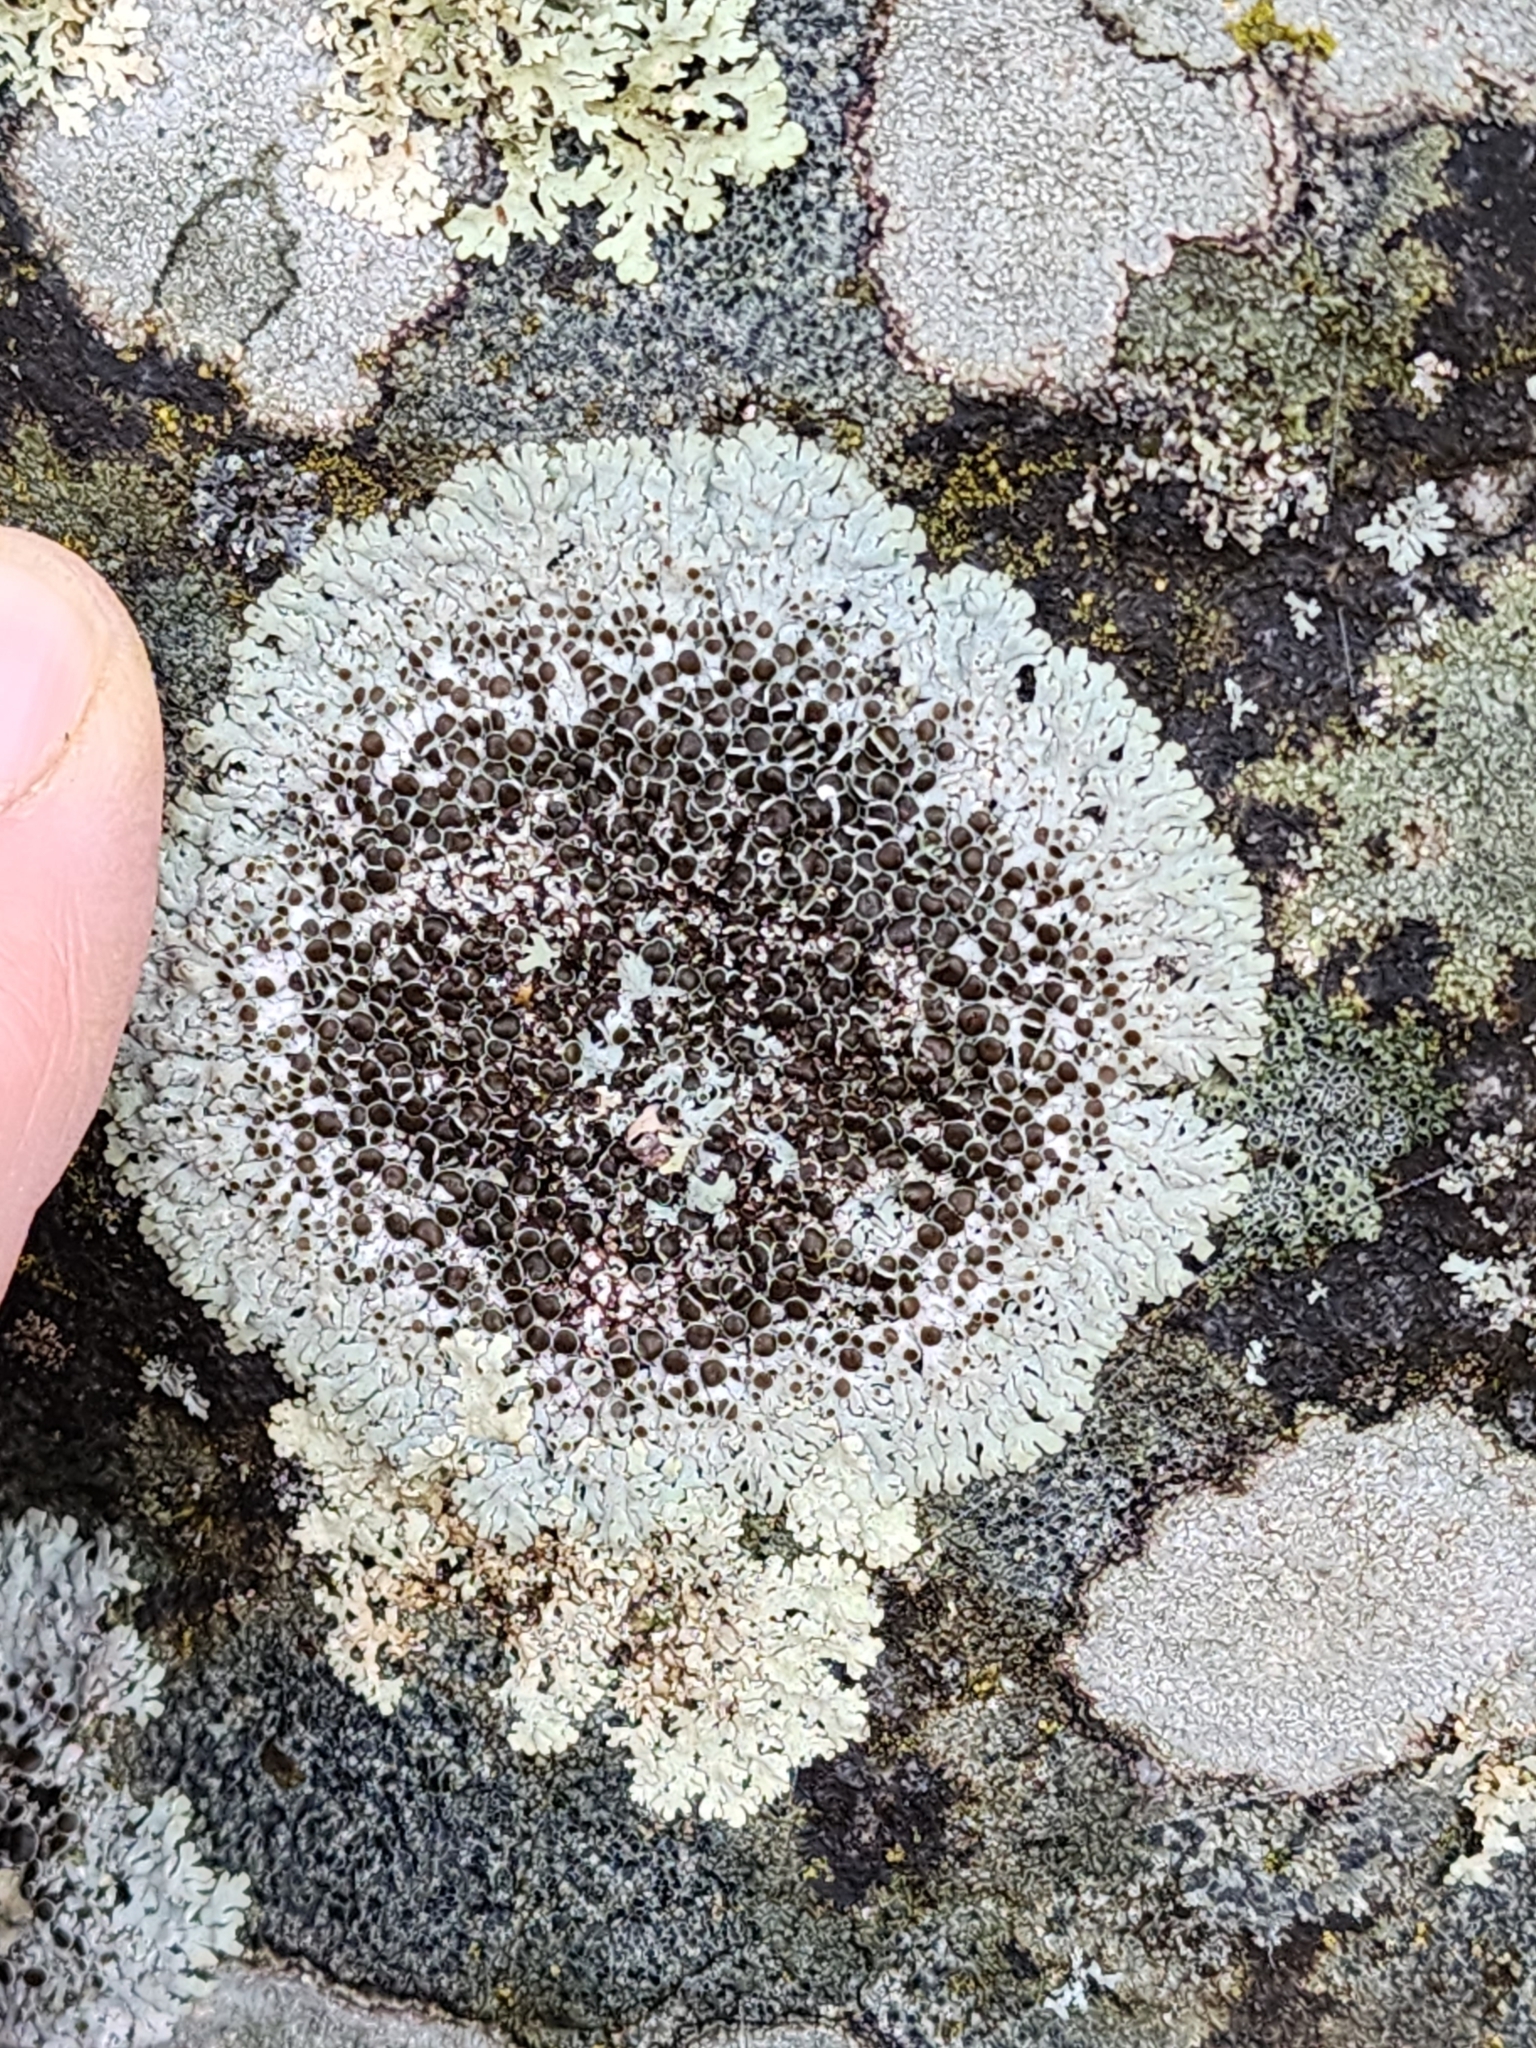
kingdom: Fungi
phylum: Ascomycota
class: Lecanoromycetes
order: Caliciales
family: Physciaceae
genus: Physcia
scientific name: Physcia phaea
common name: Black-eyed rosette lichen
